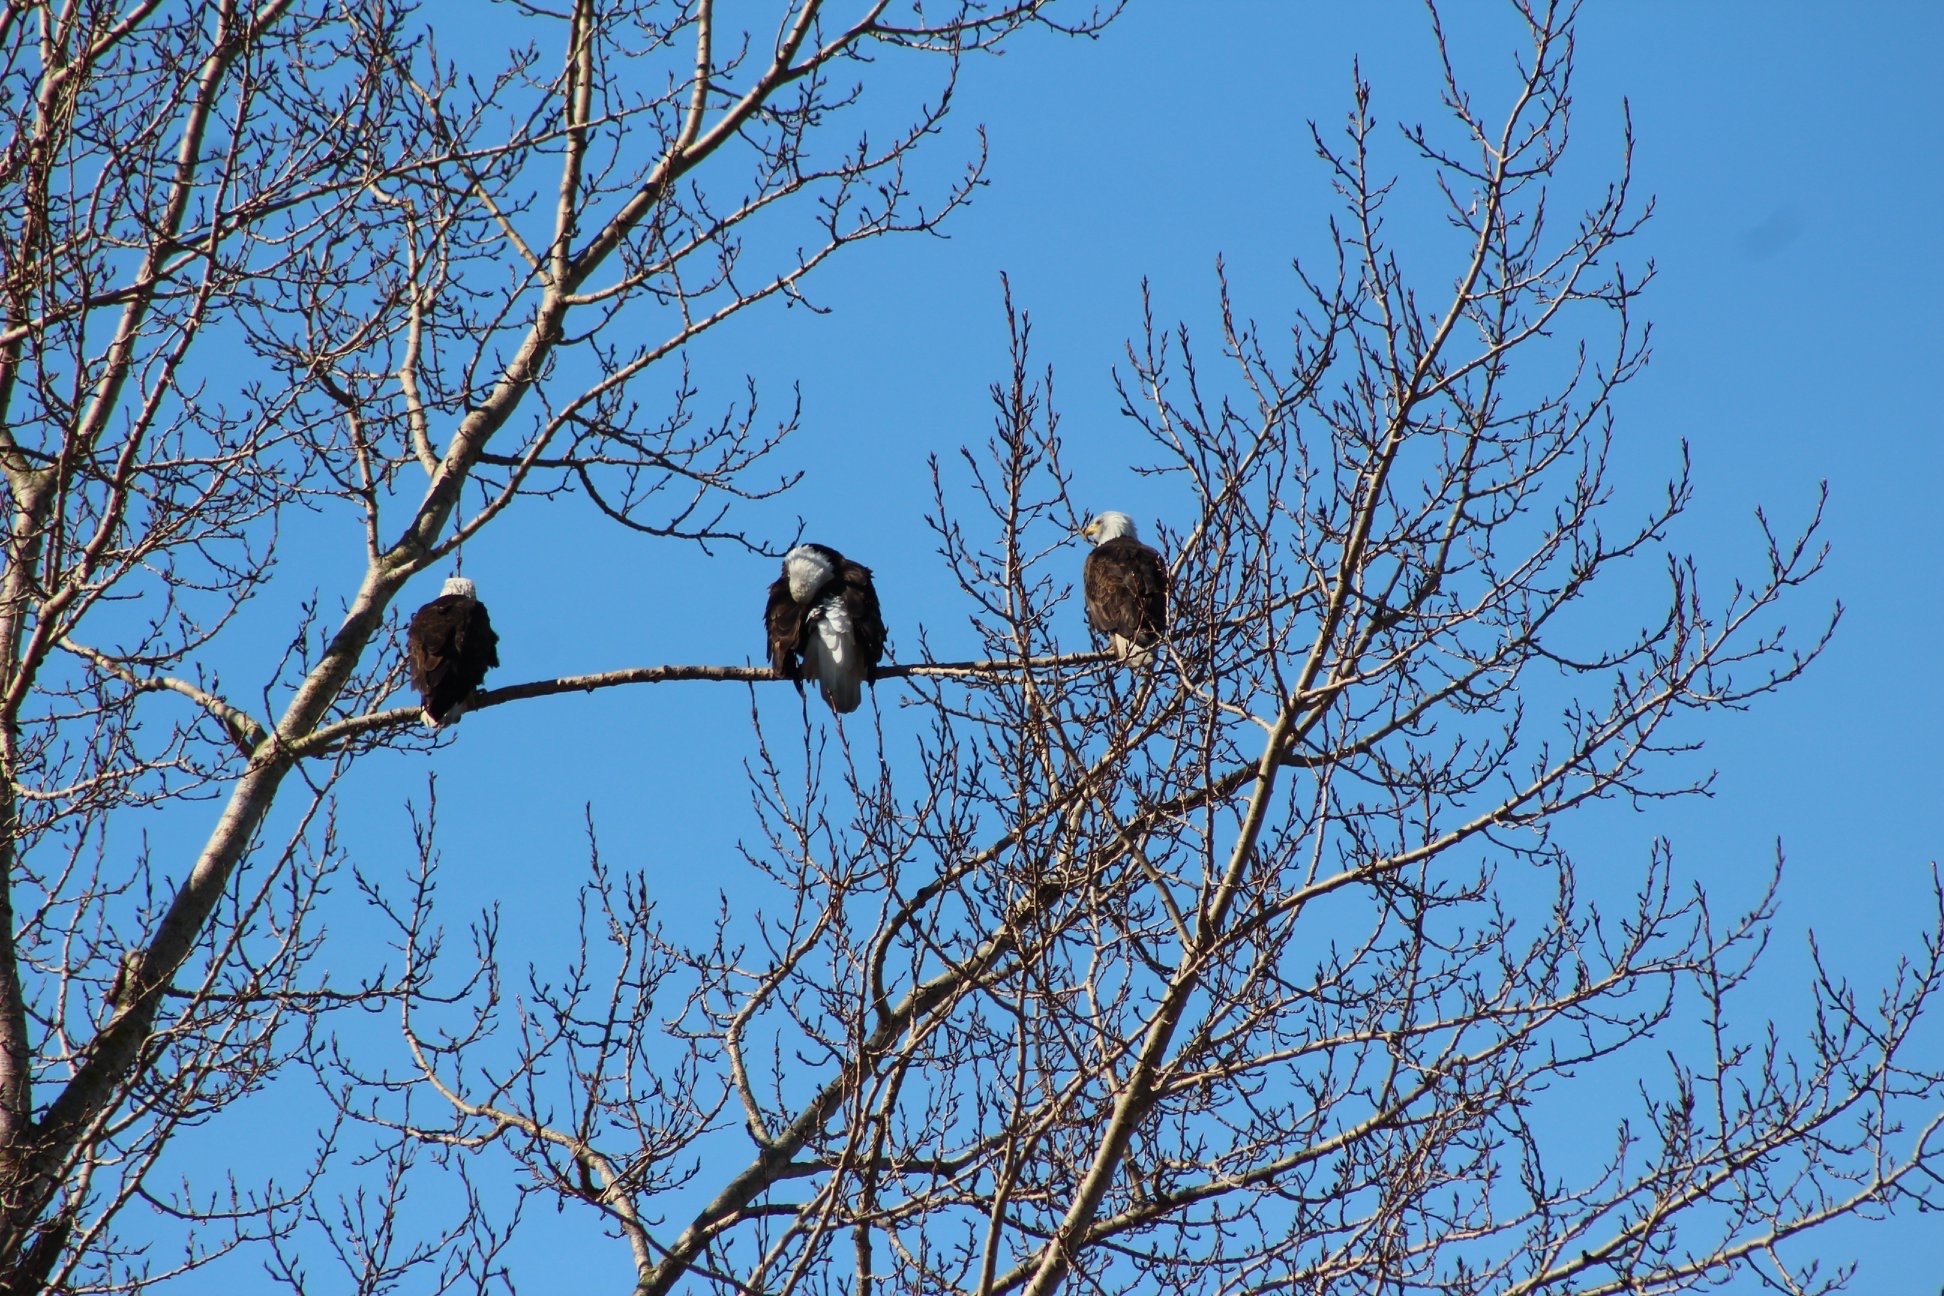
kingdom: Animalia
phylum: Chordata
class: Aves
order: Accipitriformes
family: Accipitridae
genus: Haliaeetus
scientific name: Haliaeetus leucocephalus
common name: Bald eagle
